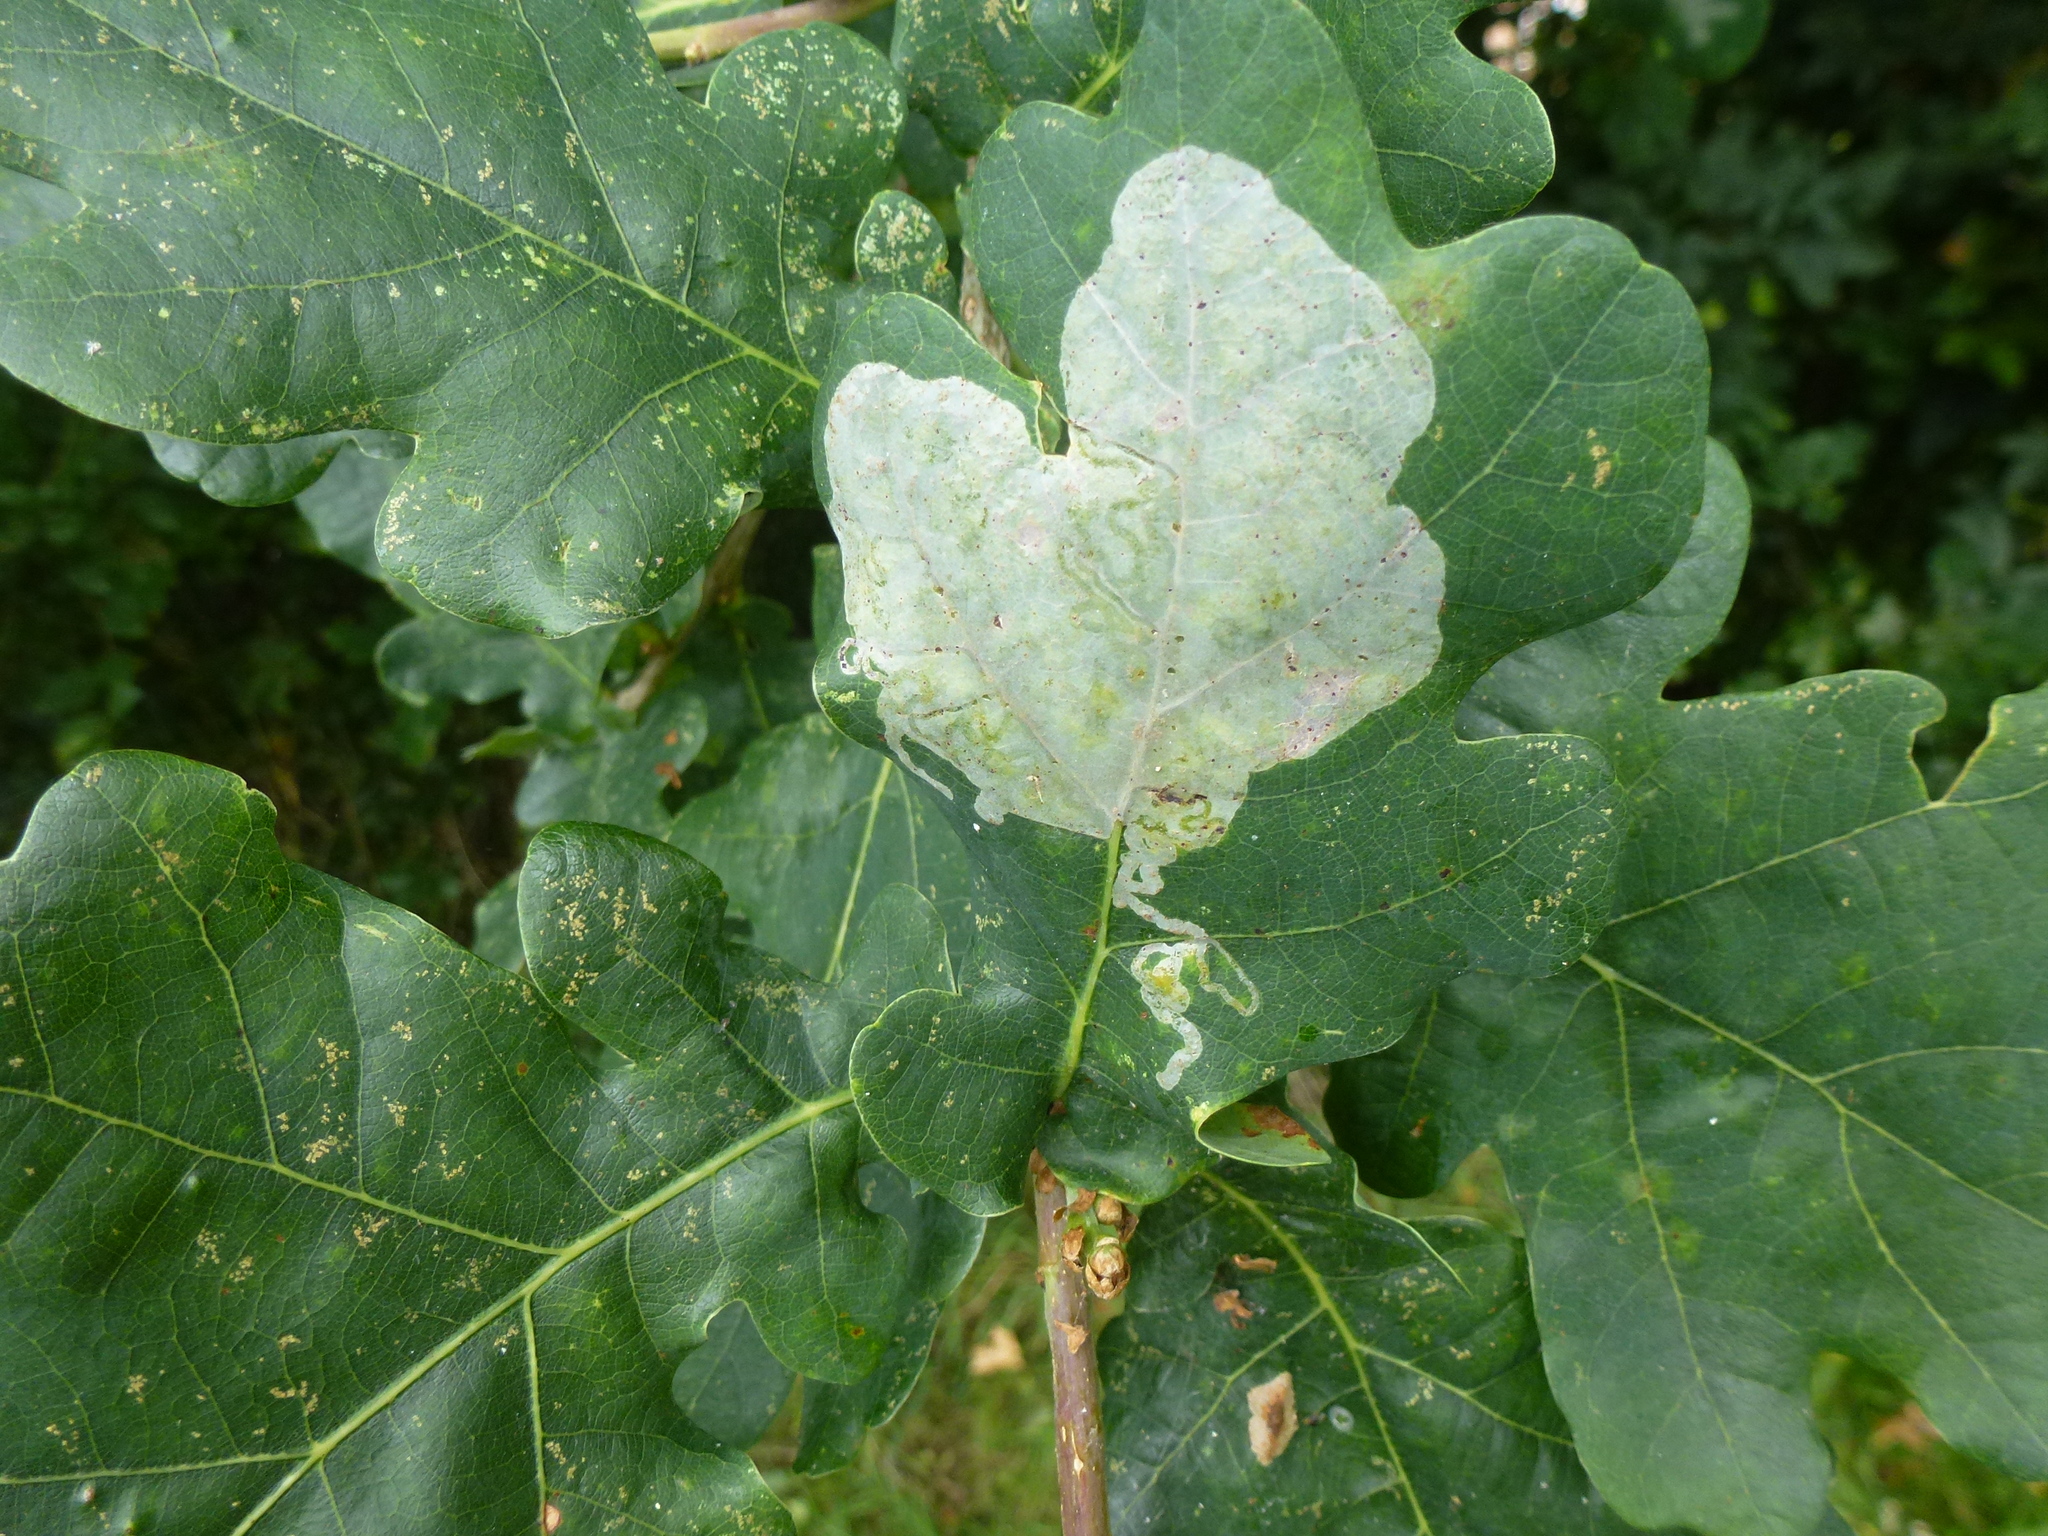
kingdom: Animalia
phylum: Arthropoda
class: Insecta
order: Lepidoptera
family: Gracillariidae
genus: Acrocercops
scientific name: Acrocercops brongniardella
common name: Brown oak slender
